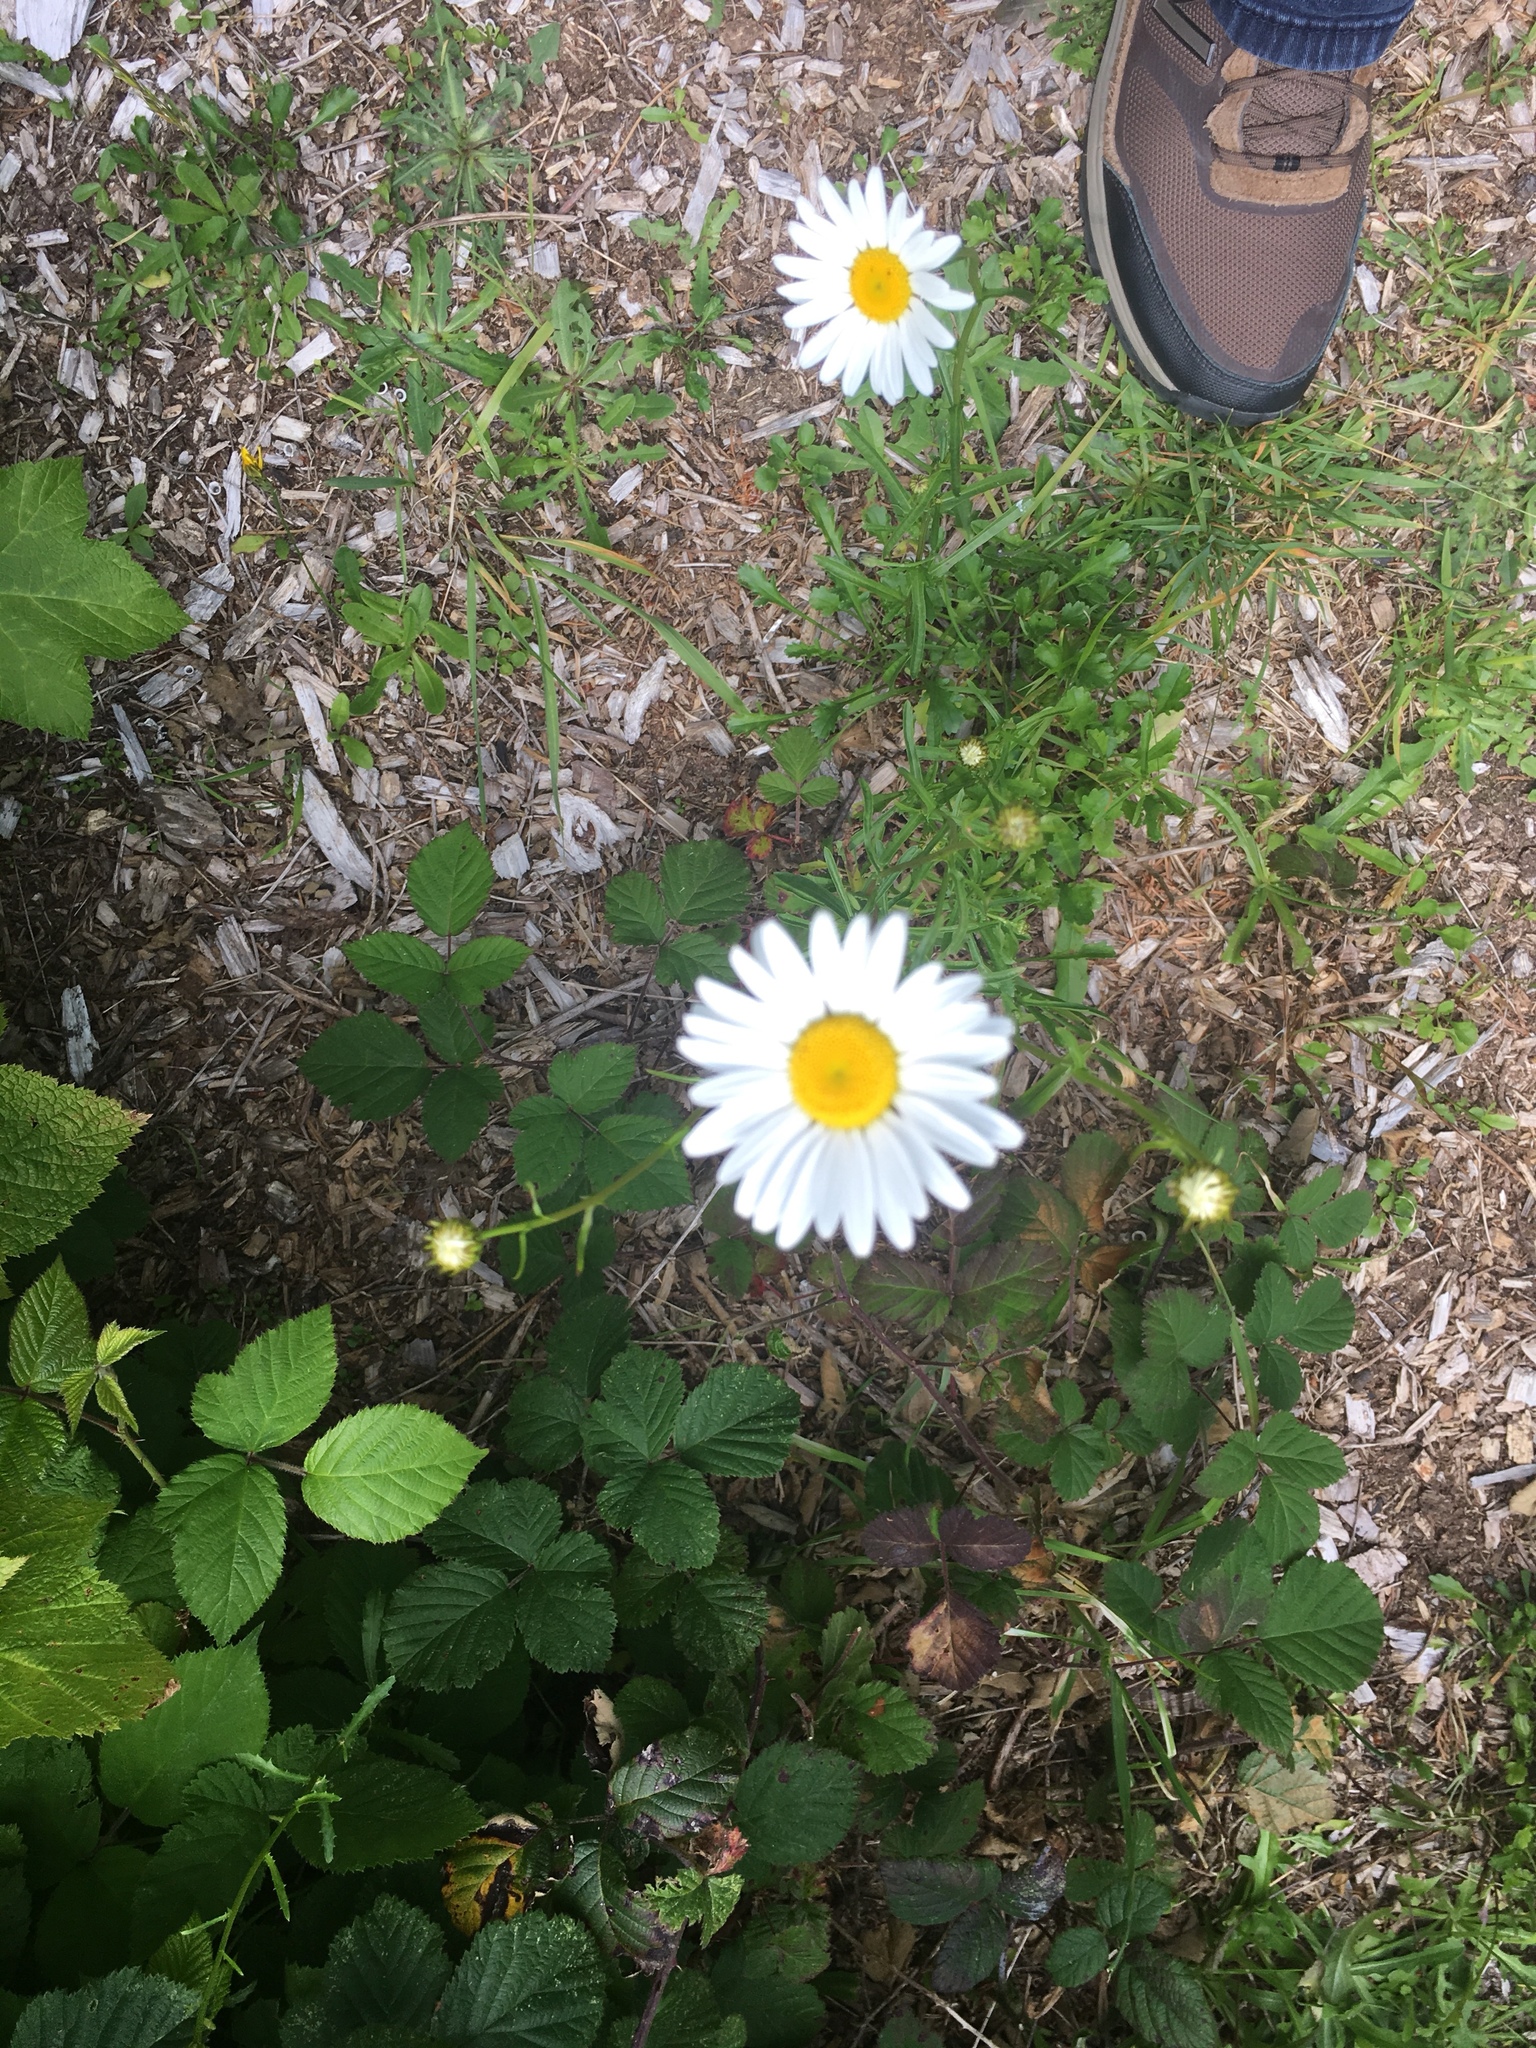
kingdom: Plantae
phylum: Tracheophyta
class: Magnoliopsida
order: Asterales
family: Asteraceae
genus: Leucanthemum
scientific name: Leucanthemum vulgare
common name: Oxeye daisy
